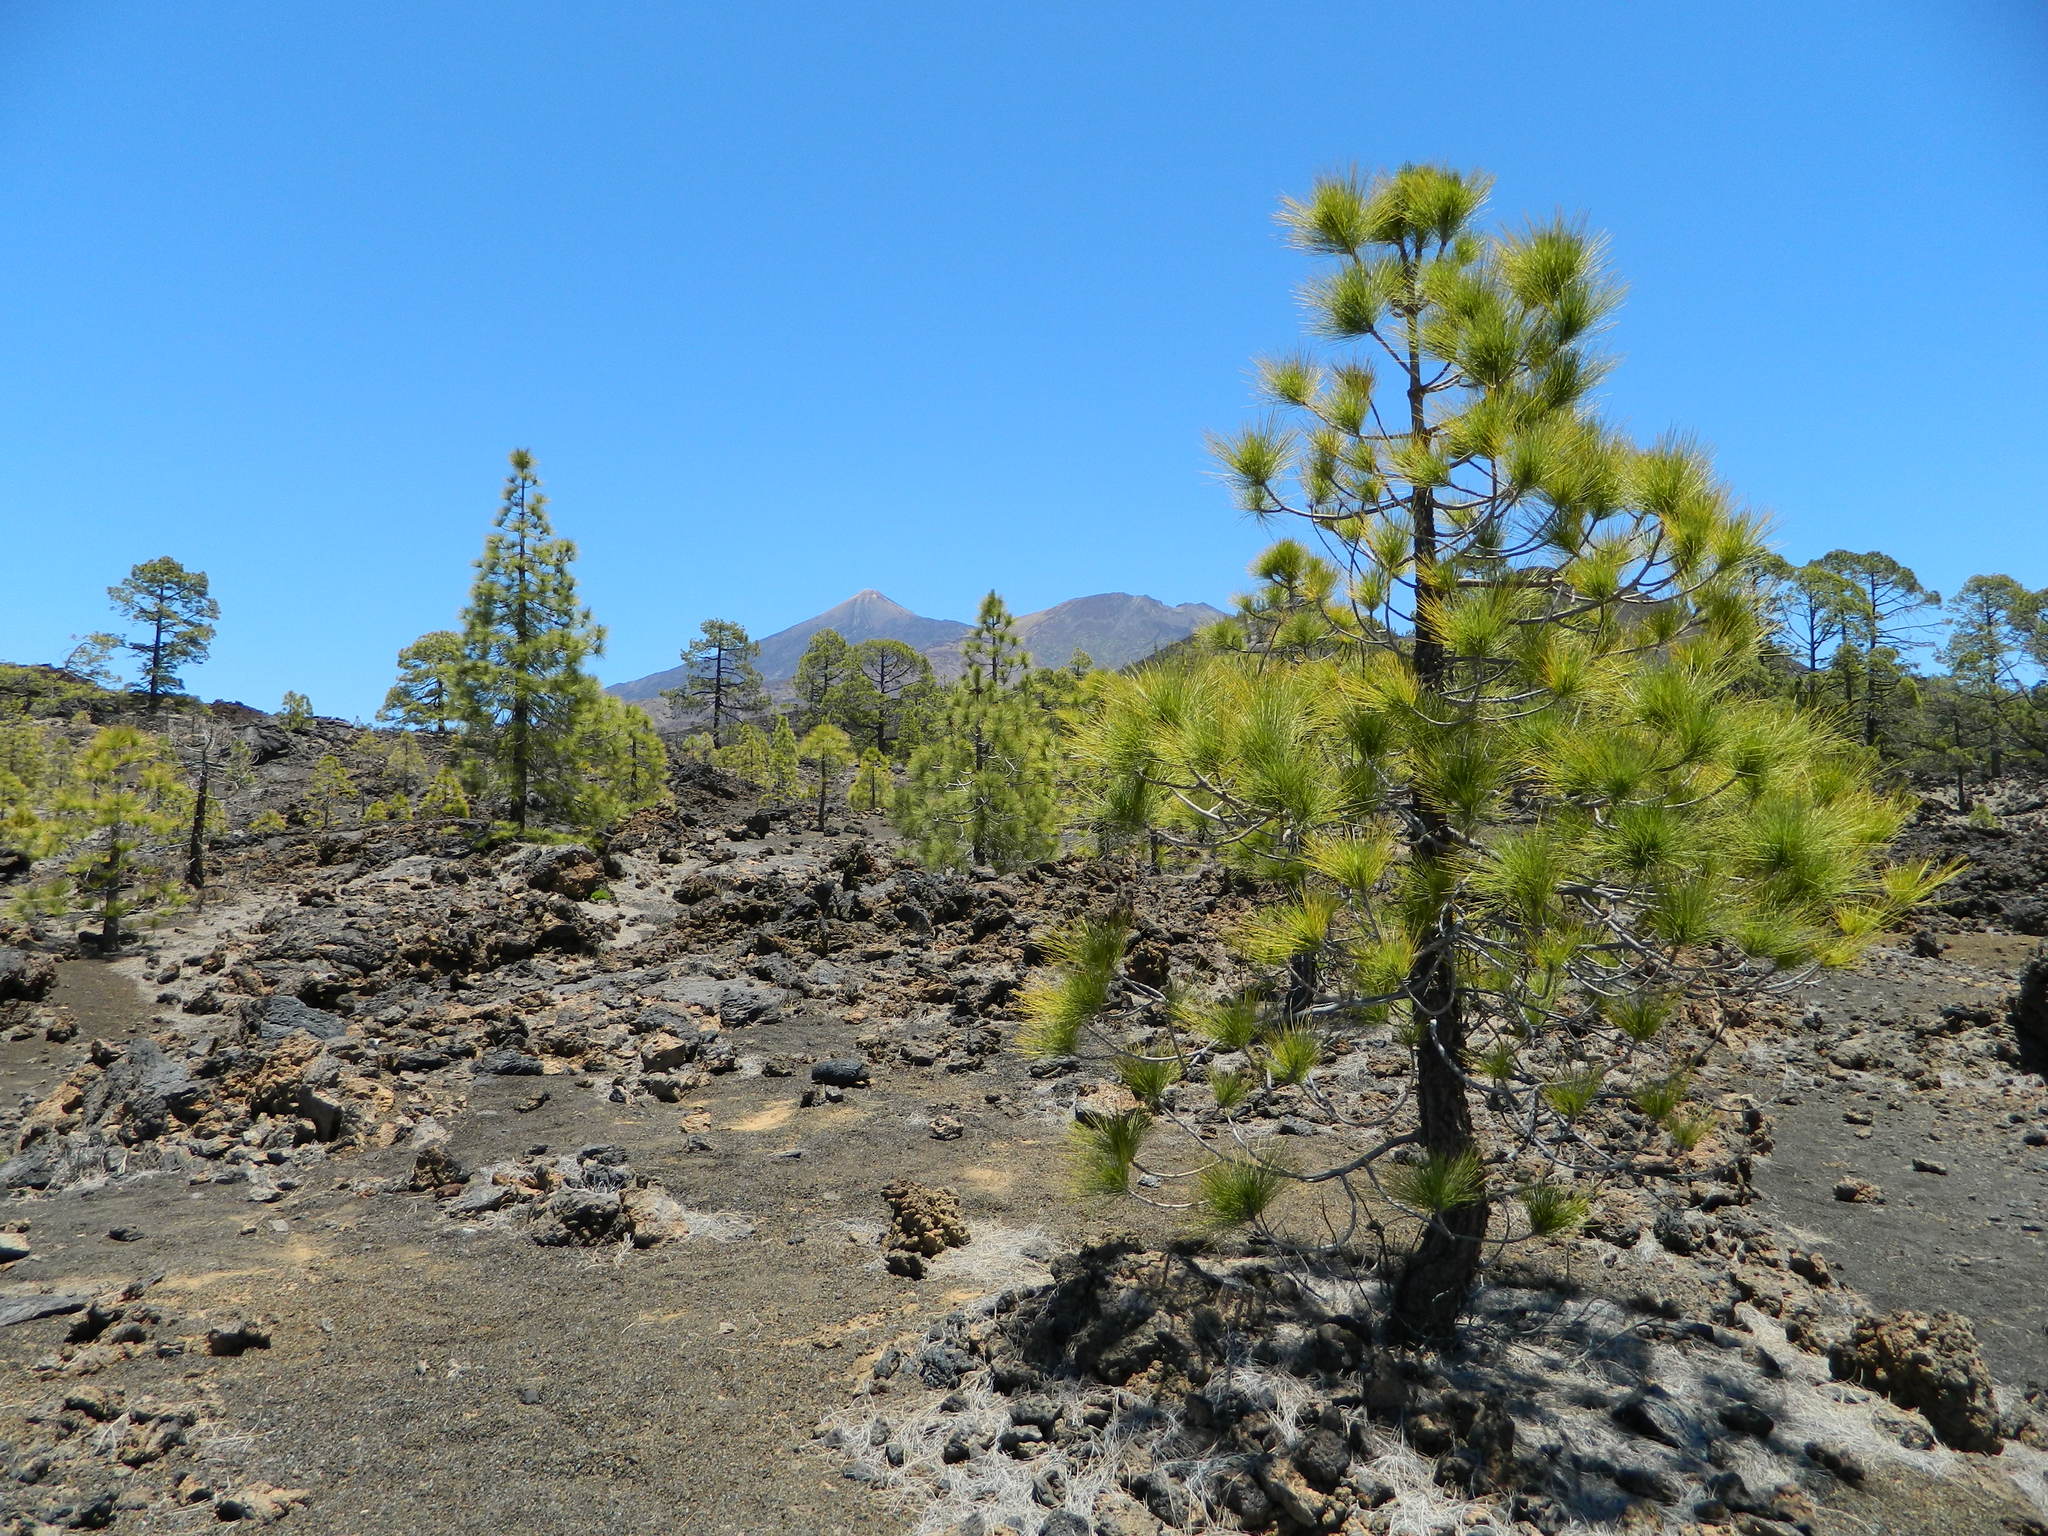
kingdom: Plantae
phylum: Tracheophyta
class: Pinopsida
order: Pinales
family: Pinaceae
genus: Pinus
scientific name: Pinus canariensis
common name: Canary islands pine
